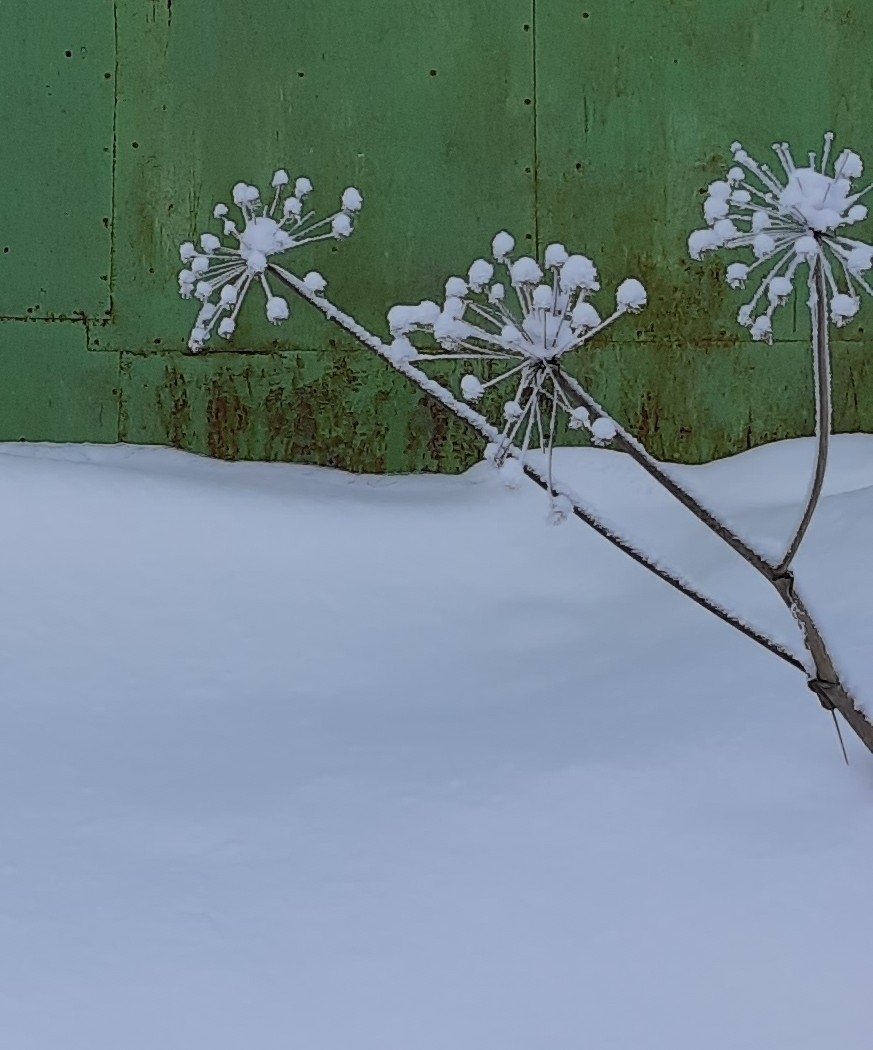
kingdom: Plantae
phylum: Tracheophyta
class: Magnoliopsida
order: Apiales
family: Apiaceae
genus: Angelica
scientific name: Angelica sylvestris
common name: Wild angelica
